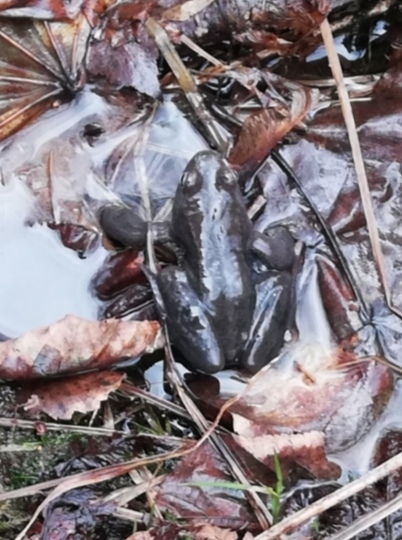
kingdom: Animalia
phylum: Chordata
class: Amphibia
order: Anura
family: Ranidae
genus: Rana
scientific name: Rana temporaria
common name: Common frog
